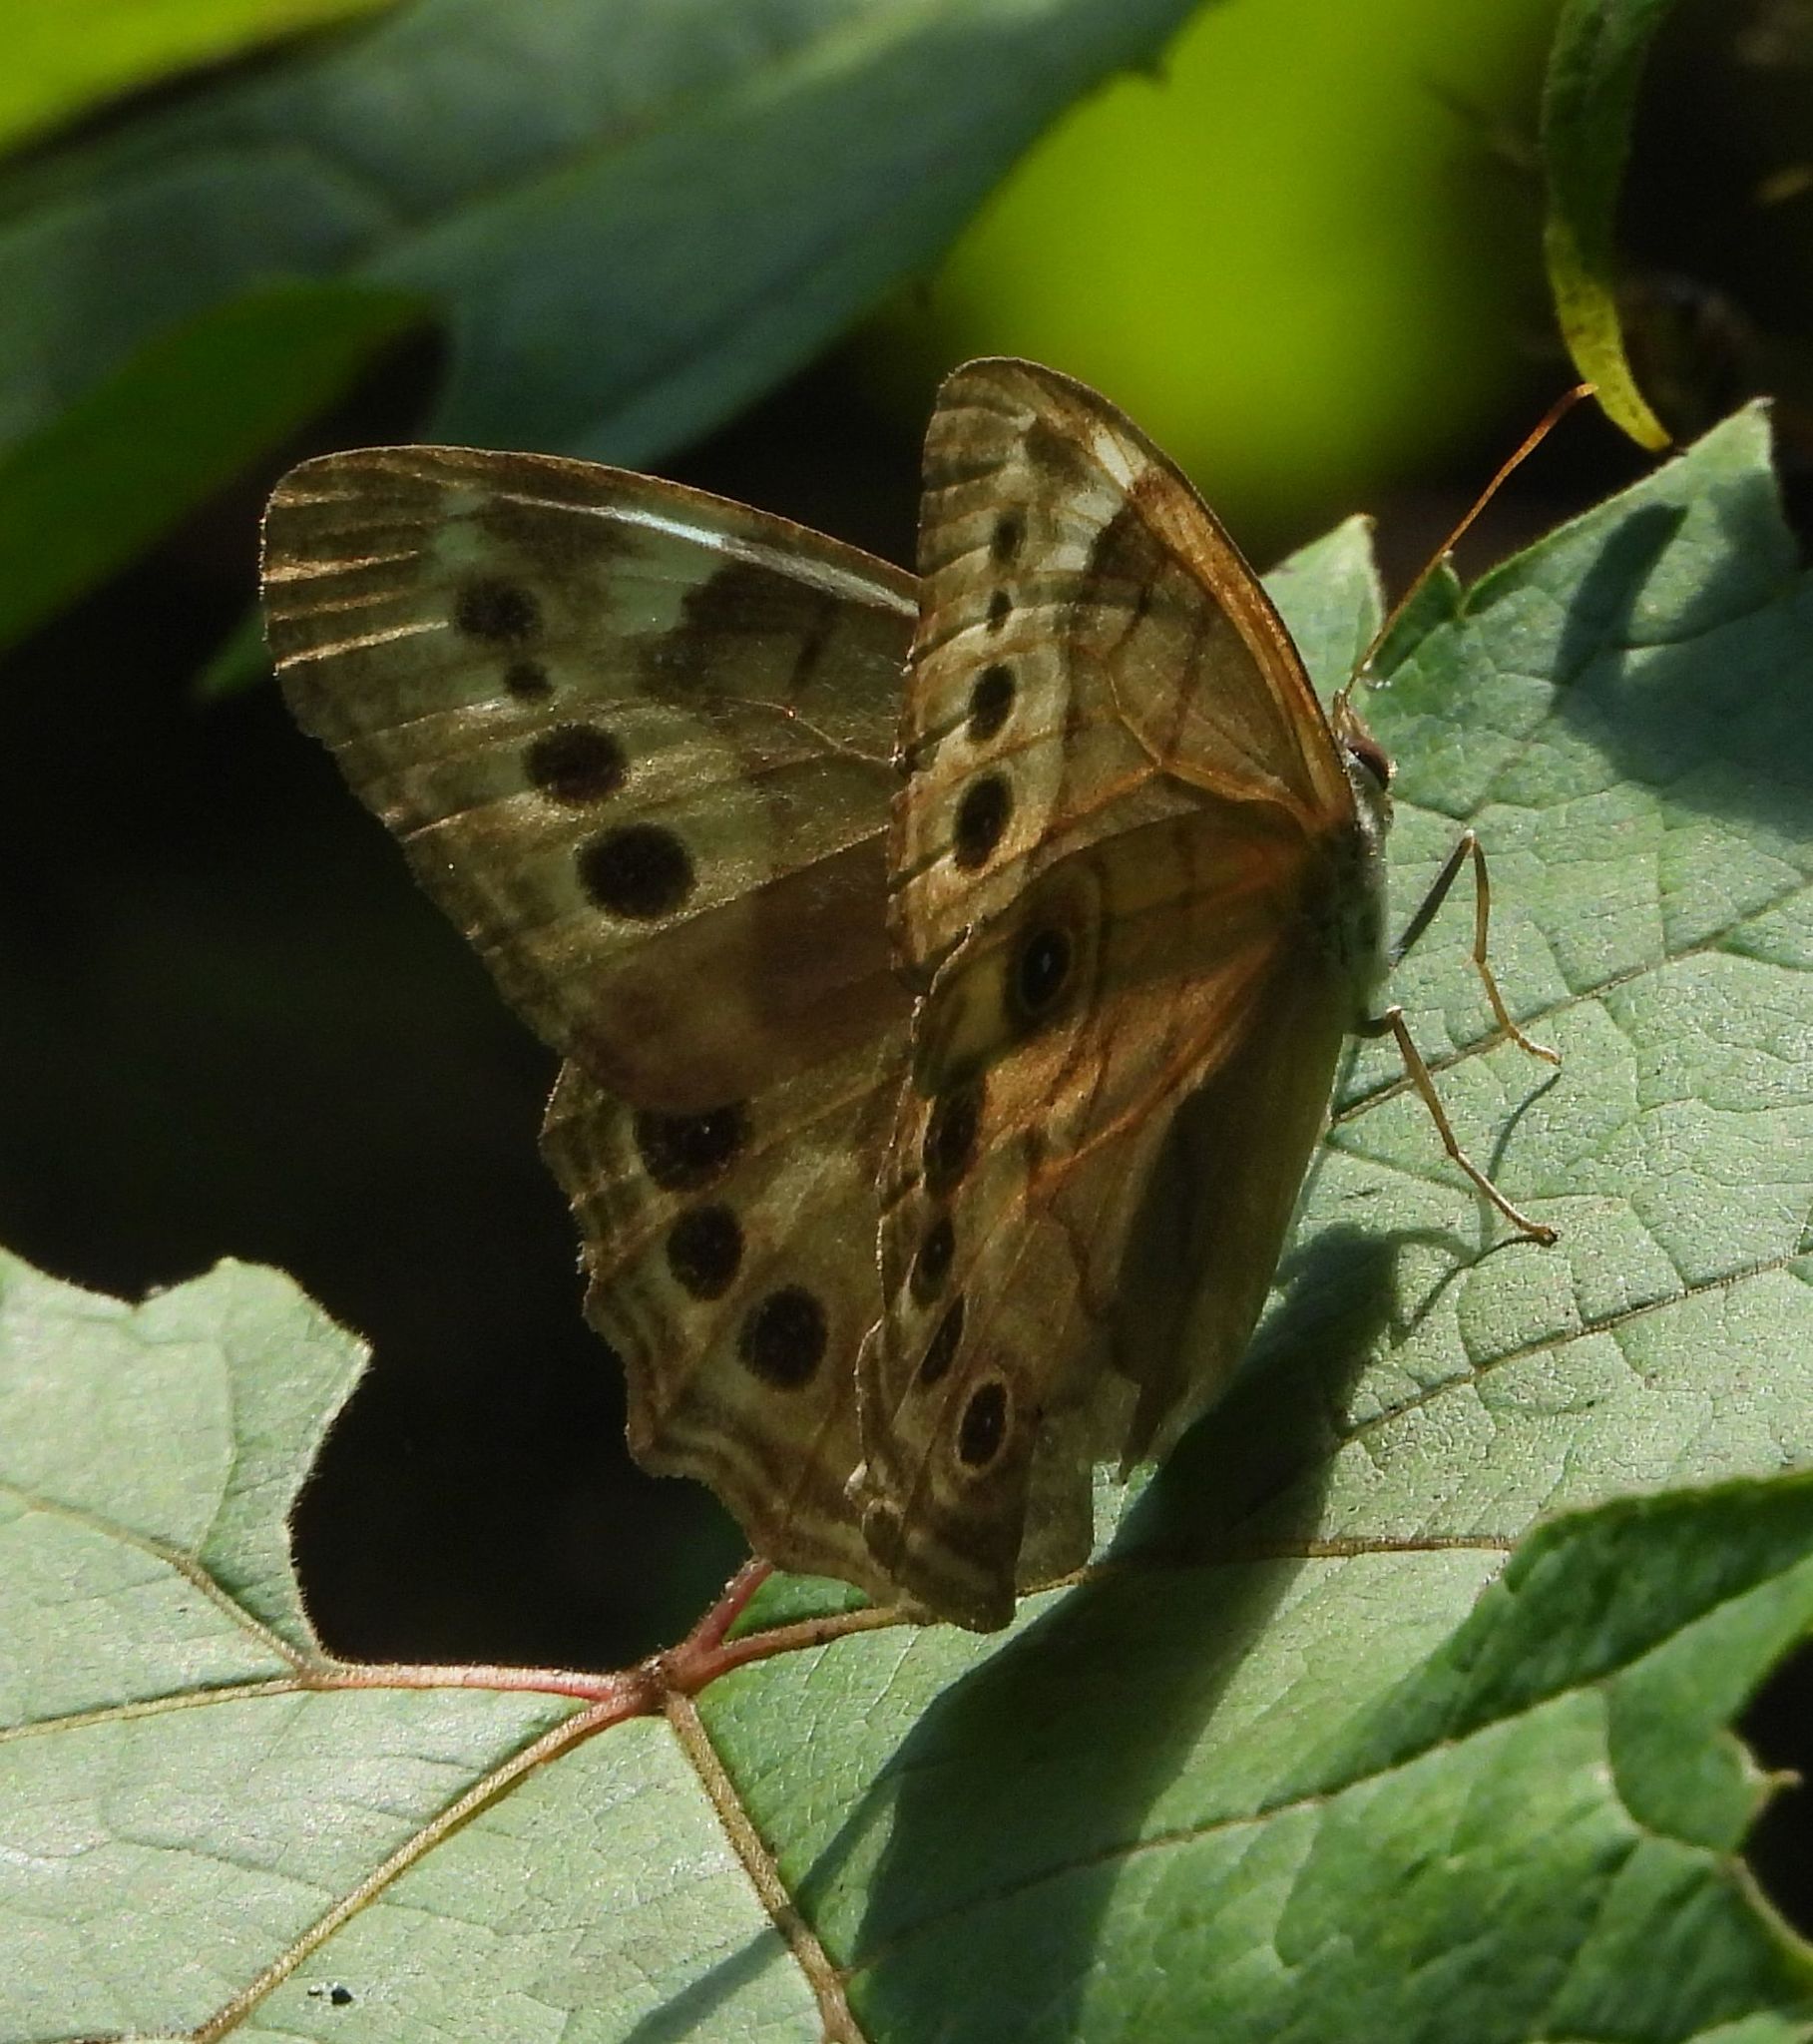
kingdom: Animalia
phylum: Arthropoda
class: Insecta
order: Lepidoptera
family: Nymphalidae
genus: Lethe
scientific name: Lethe anthedon
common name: Northern pearly-eye
